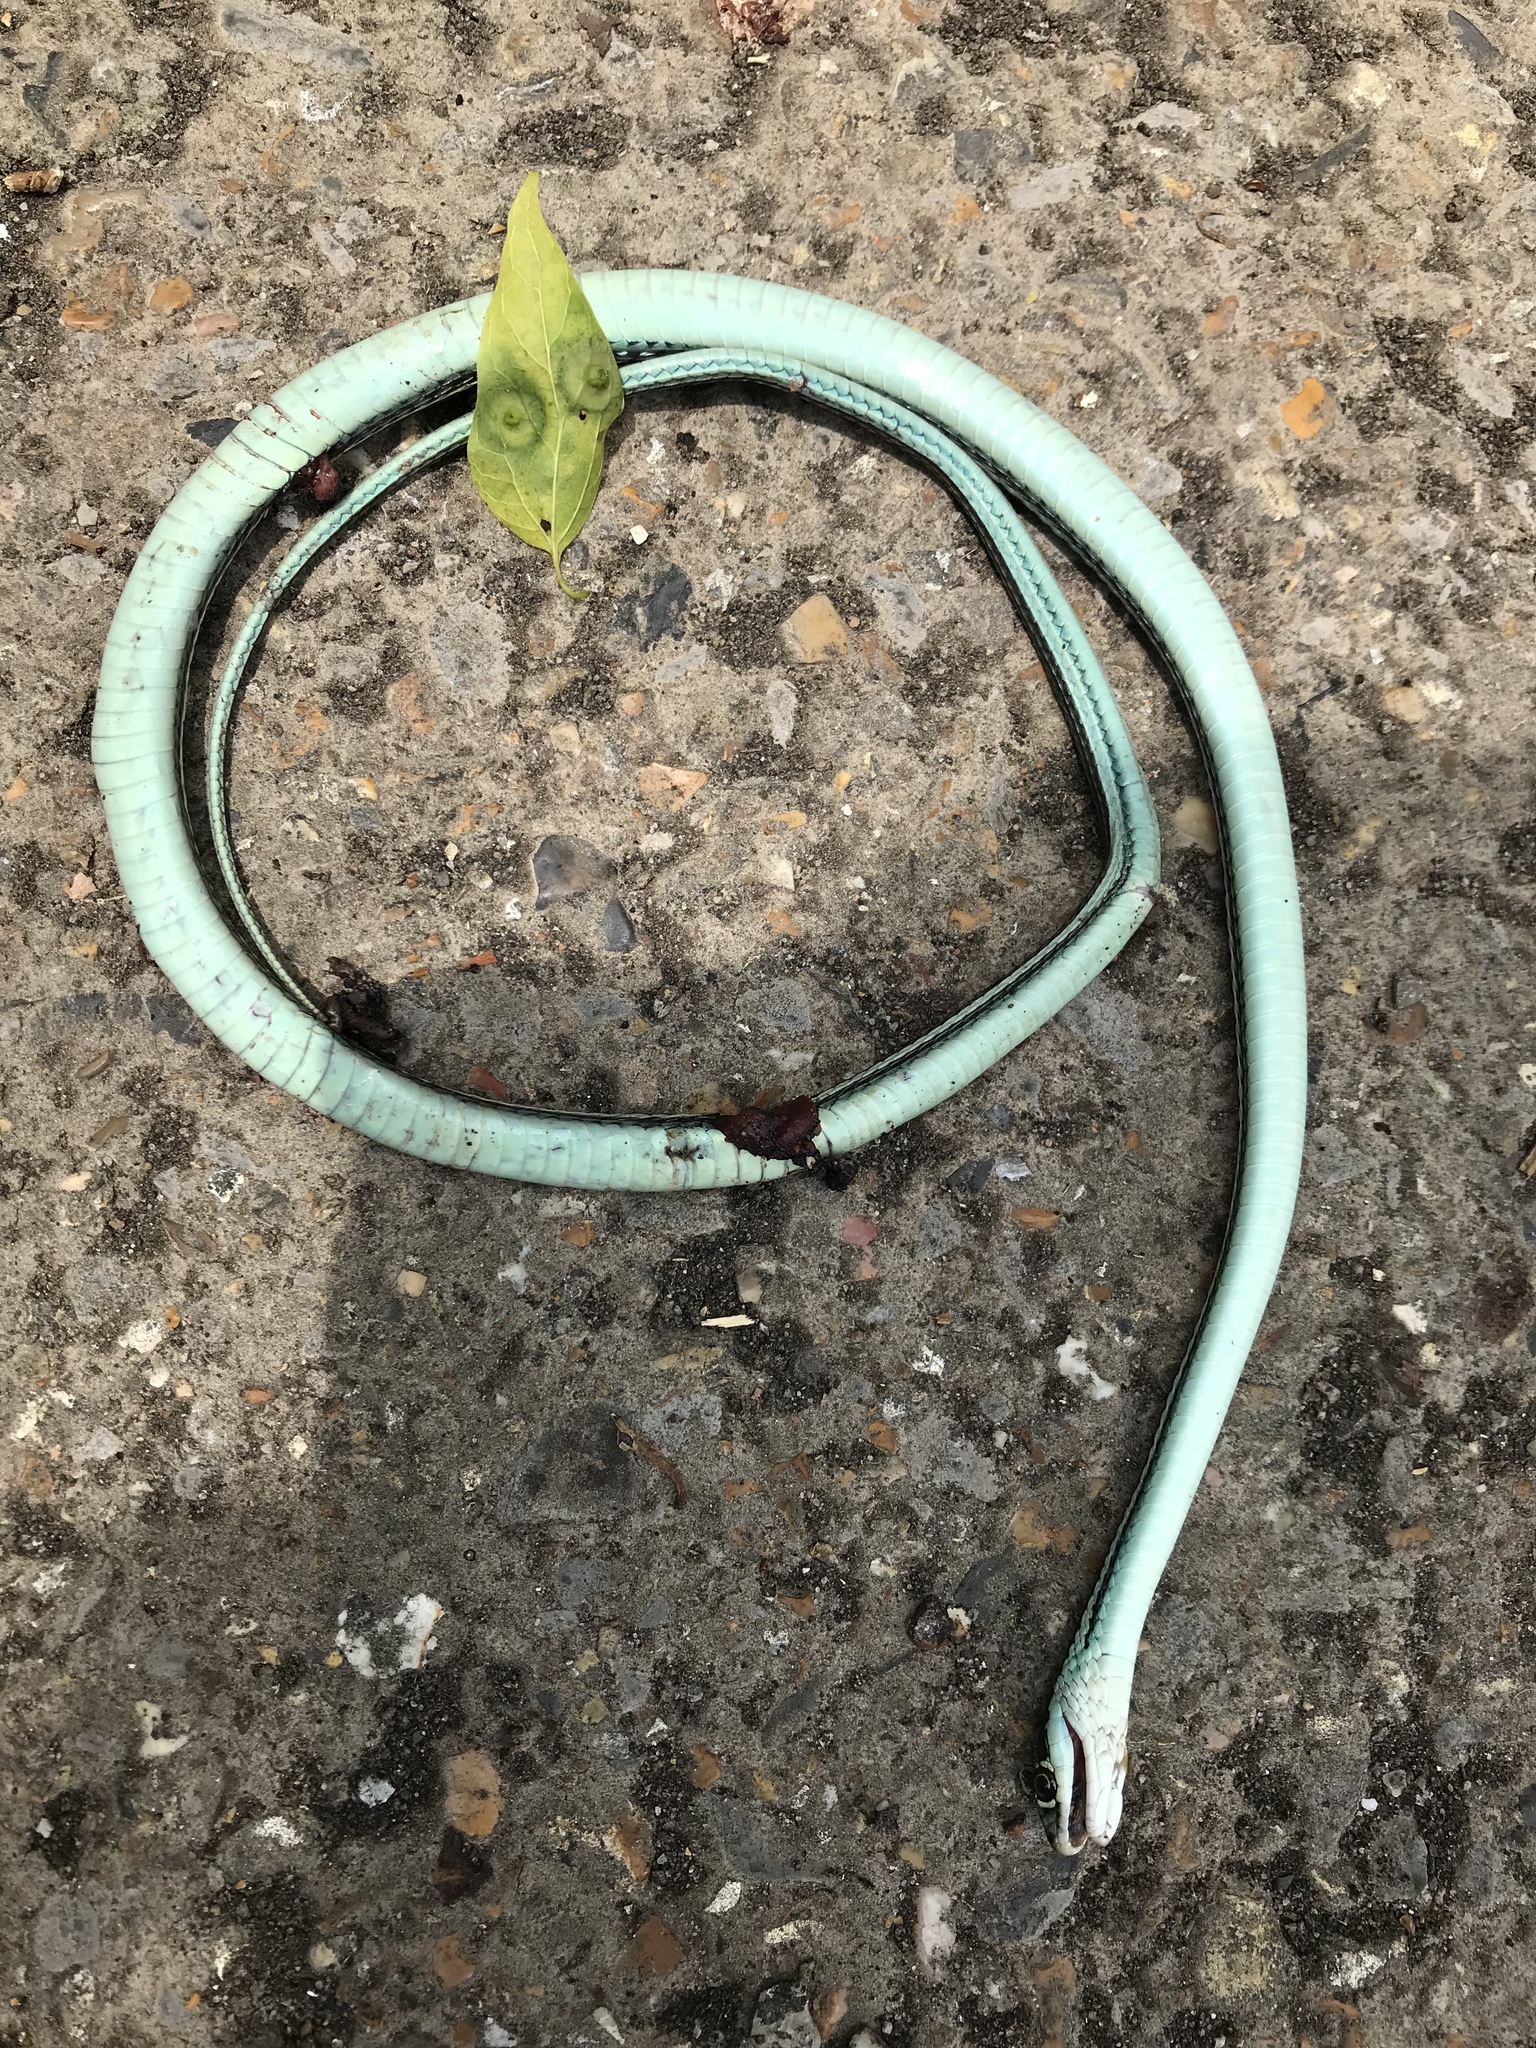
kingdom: Animalia
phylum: Chordata
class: Squamata
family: Colubridae
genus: Thamnophis
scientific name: Thamnophis proximus
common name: Western ribbon snake
